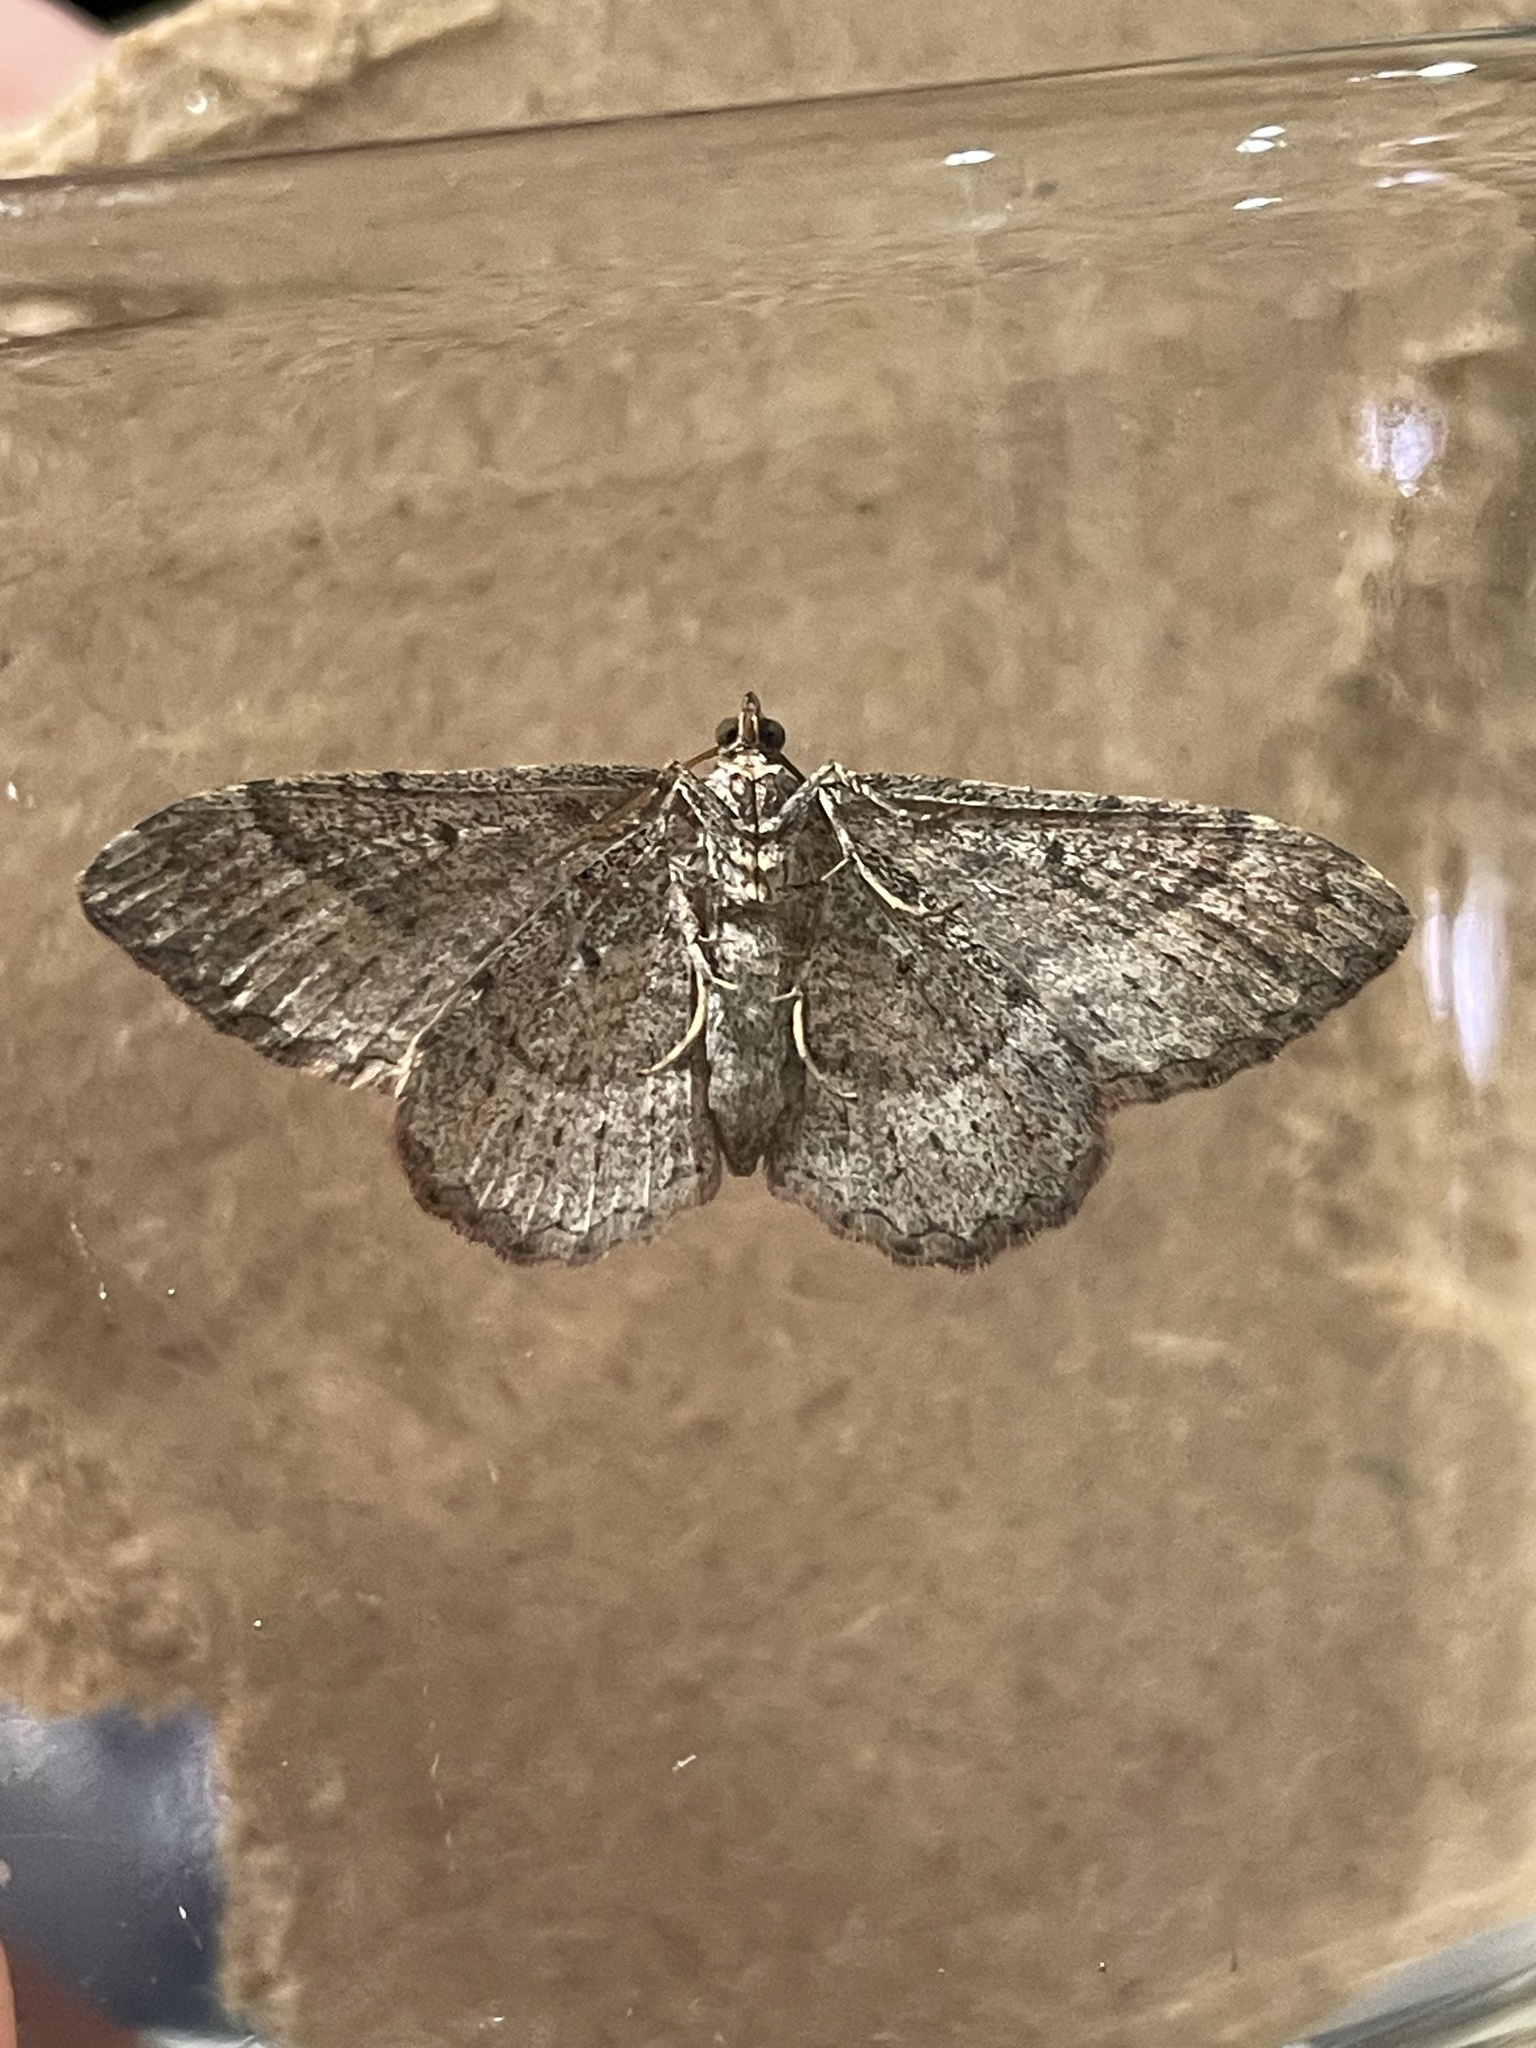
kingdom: Animalia
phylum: Arthropoda
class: Insecta
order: Lepidoptera
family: Geometridae
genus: Costaconvexa
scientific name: Costaconvexa centrostrigaria
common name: Bent-line carpet
